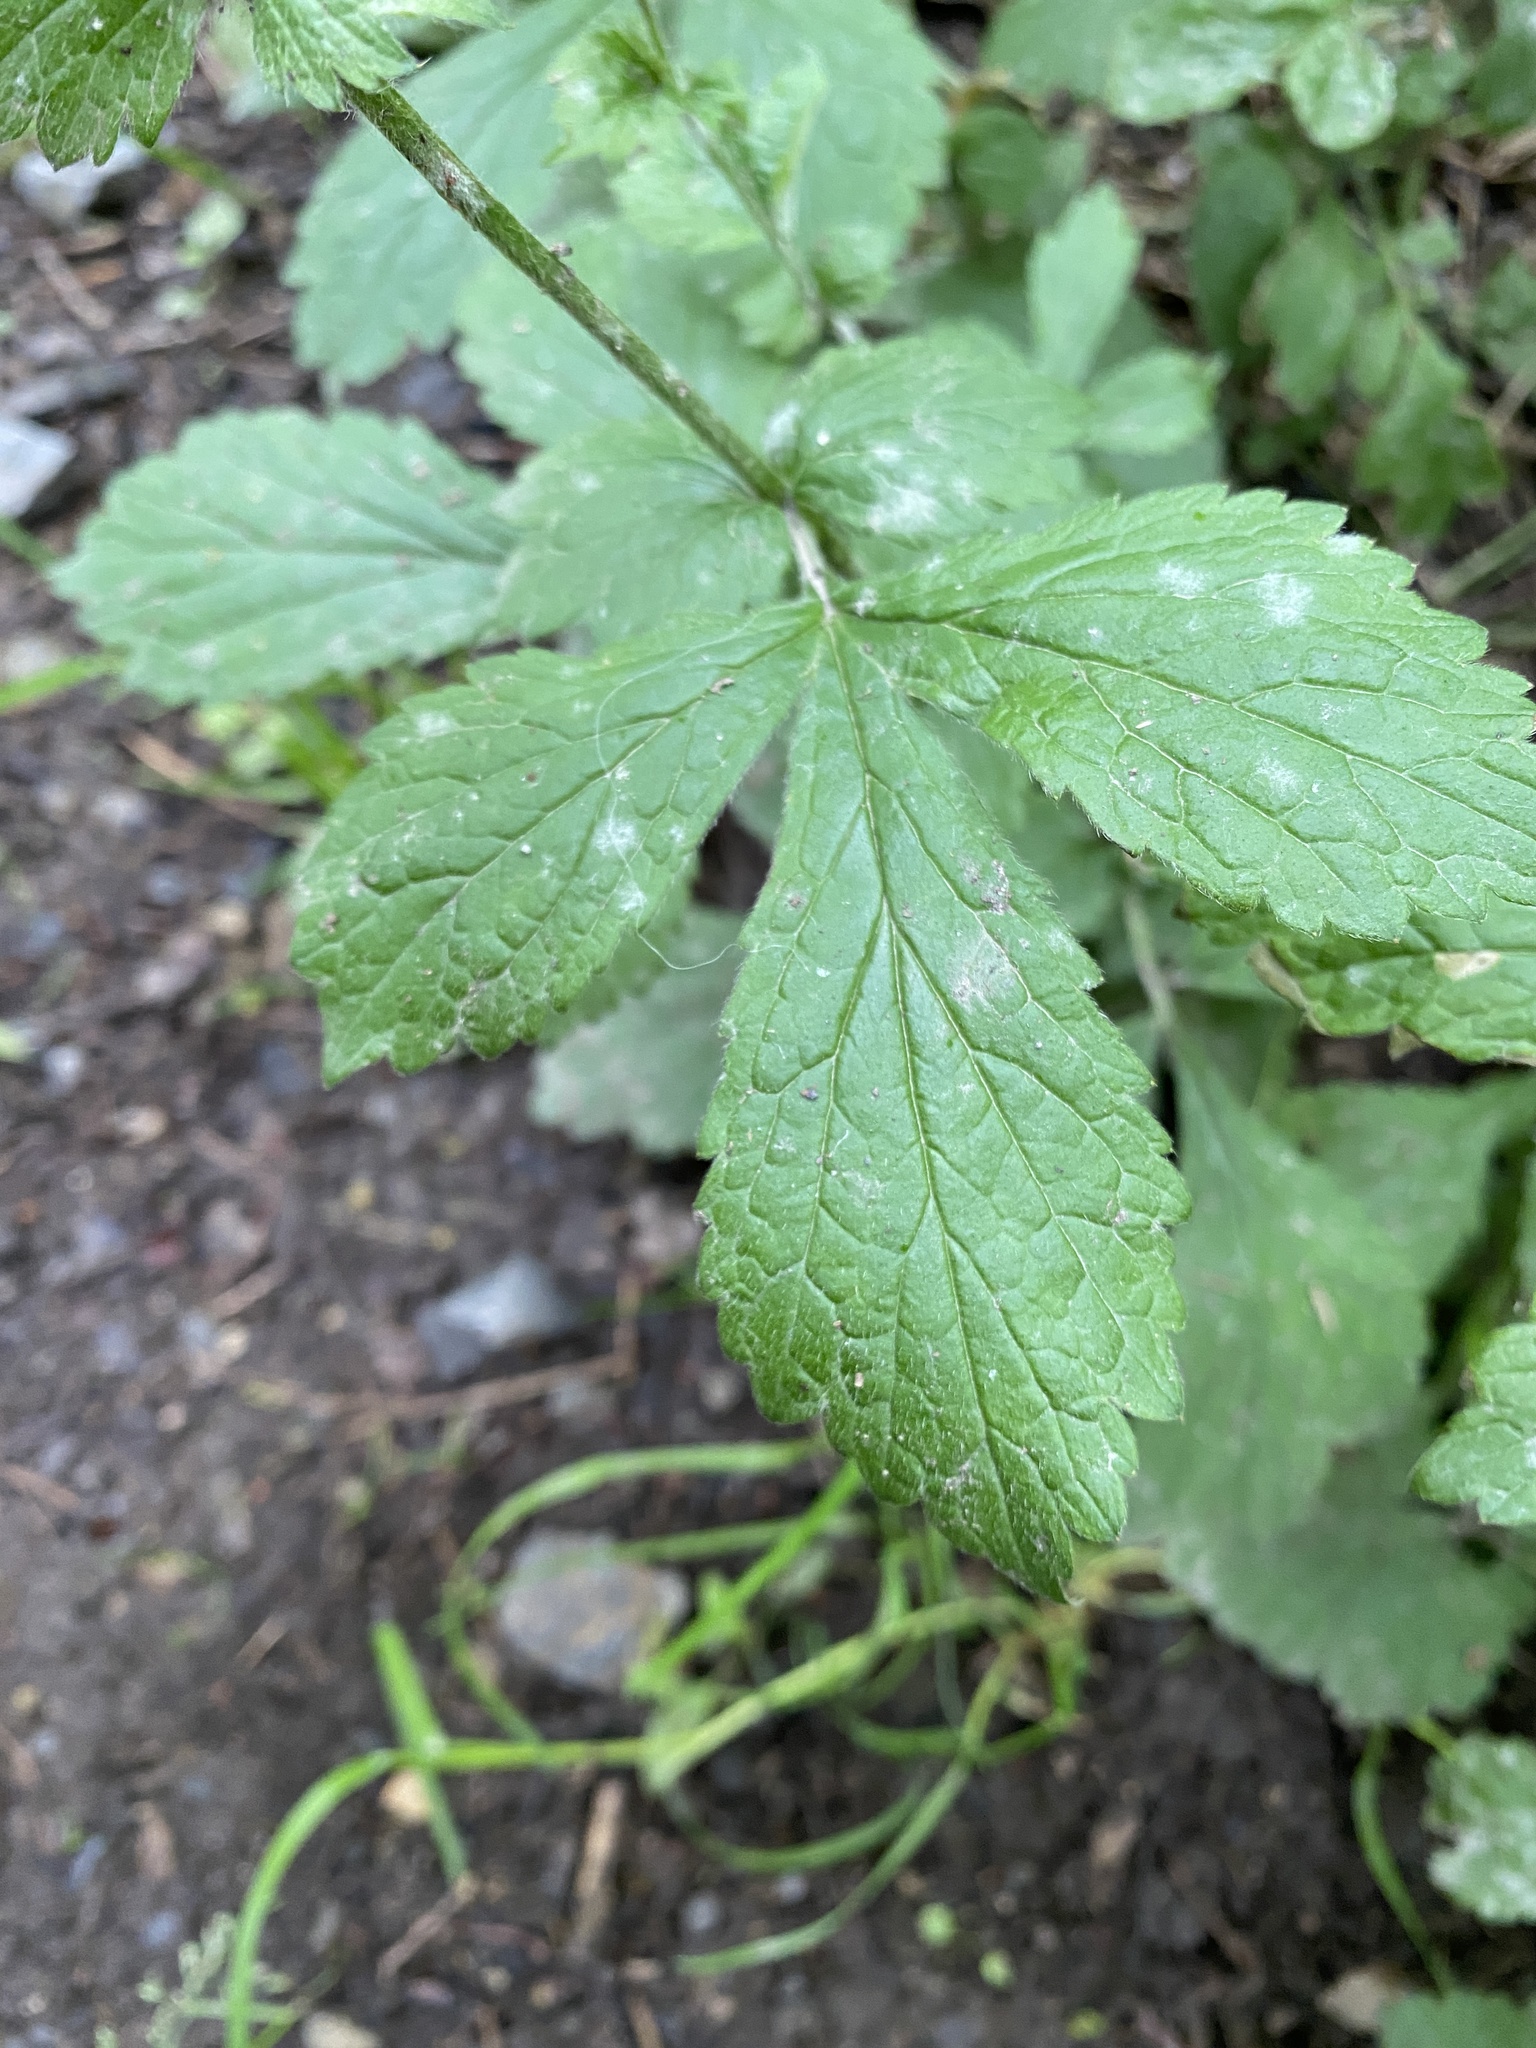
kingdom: Fungi
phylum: Ascomycota
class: Leotiomycetes
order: Helotiales
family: Erysiphaceae
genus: Podosphaera
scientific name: Podosphaera aphanis
